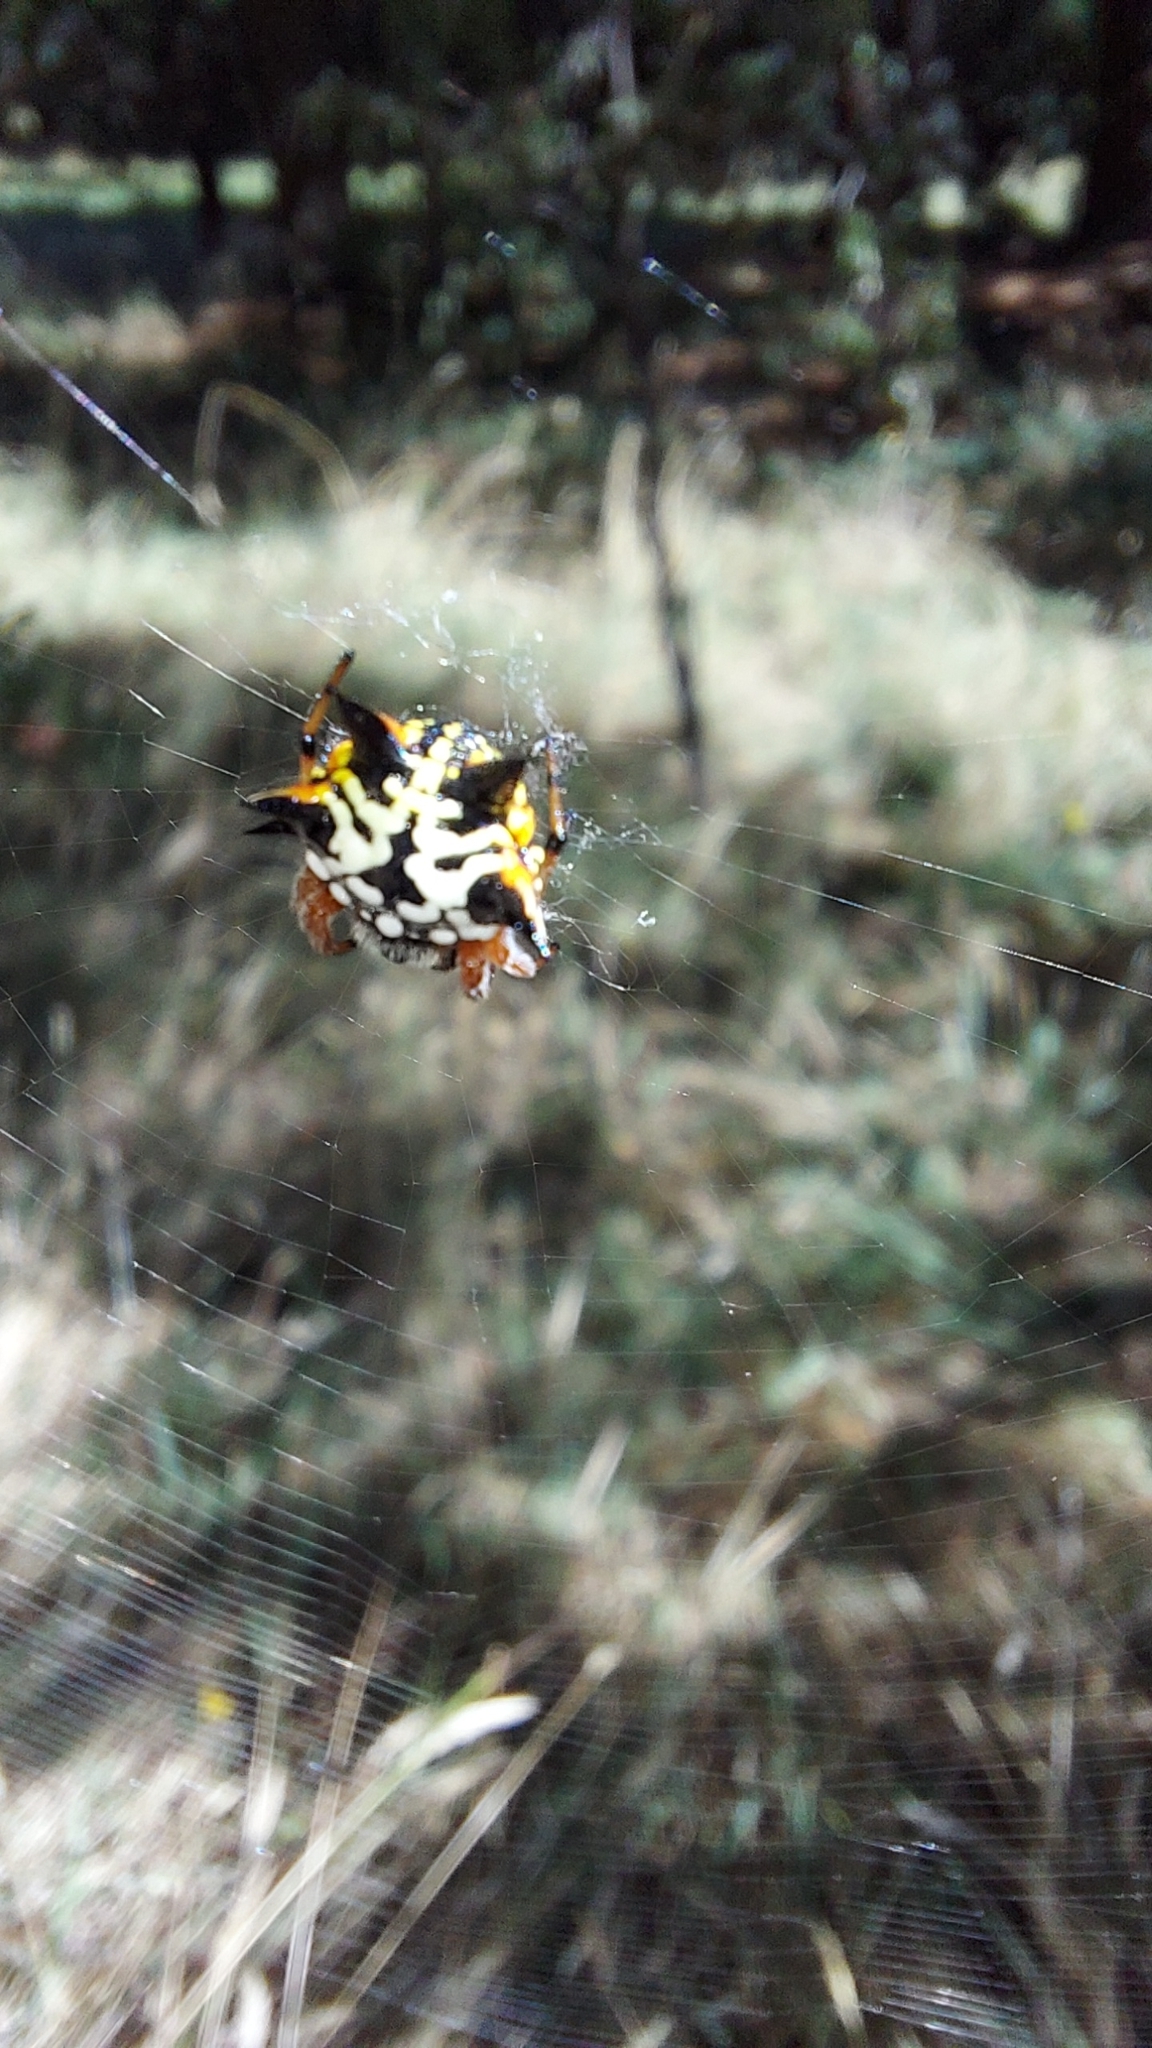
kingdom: Animalia
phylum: Arthropoda
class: Arachnida
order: Araneae
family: Araneidae
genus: Austracantha
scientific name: Austracantha minax
